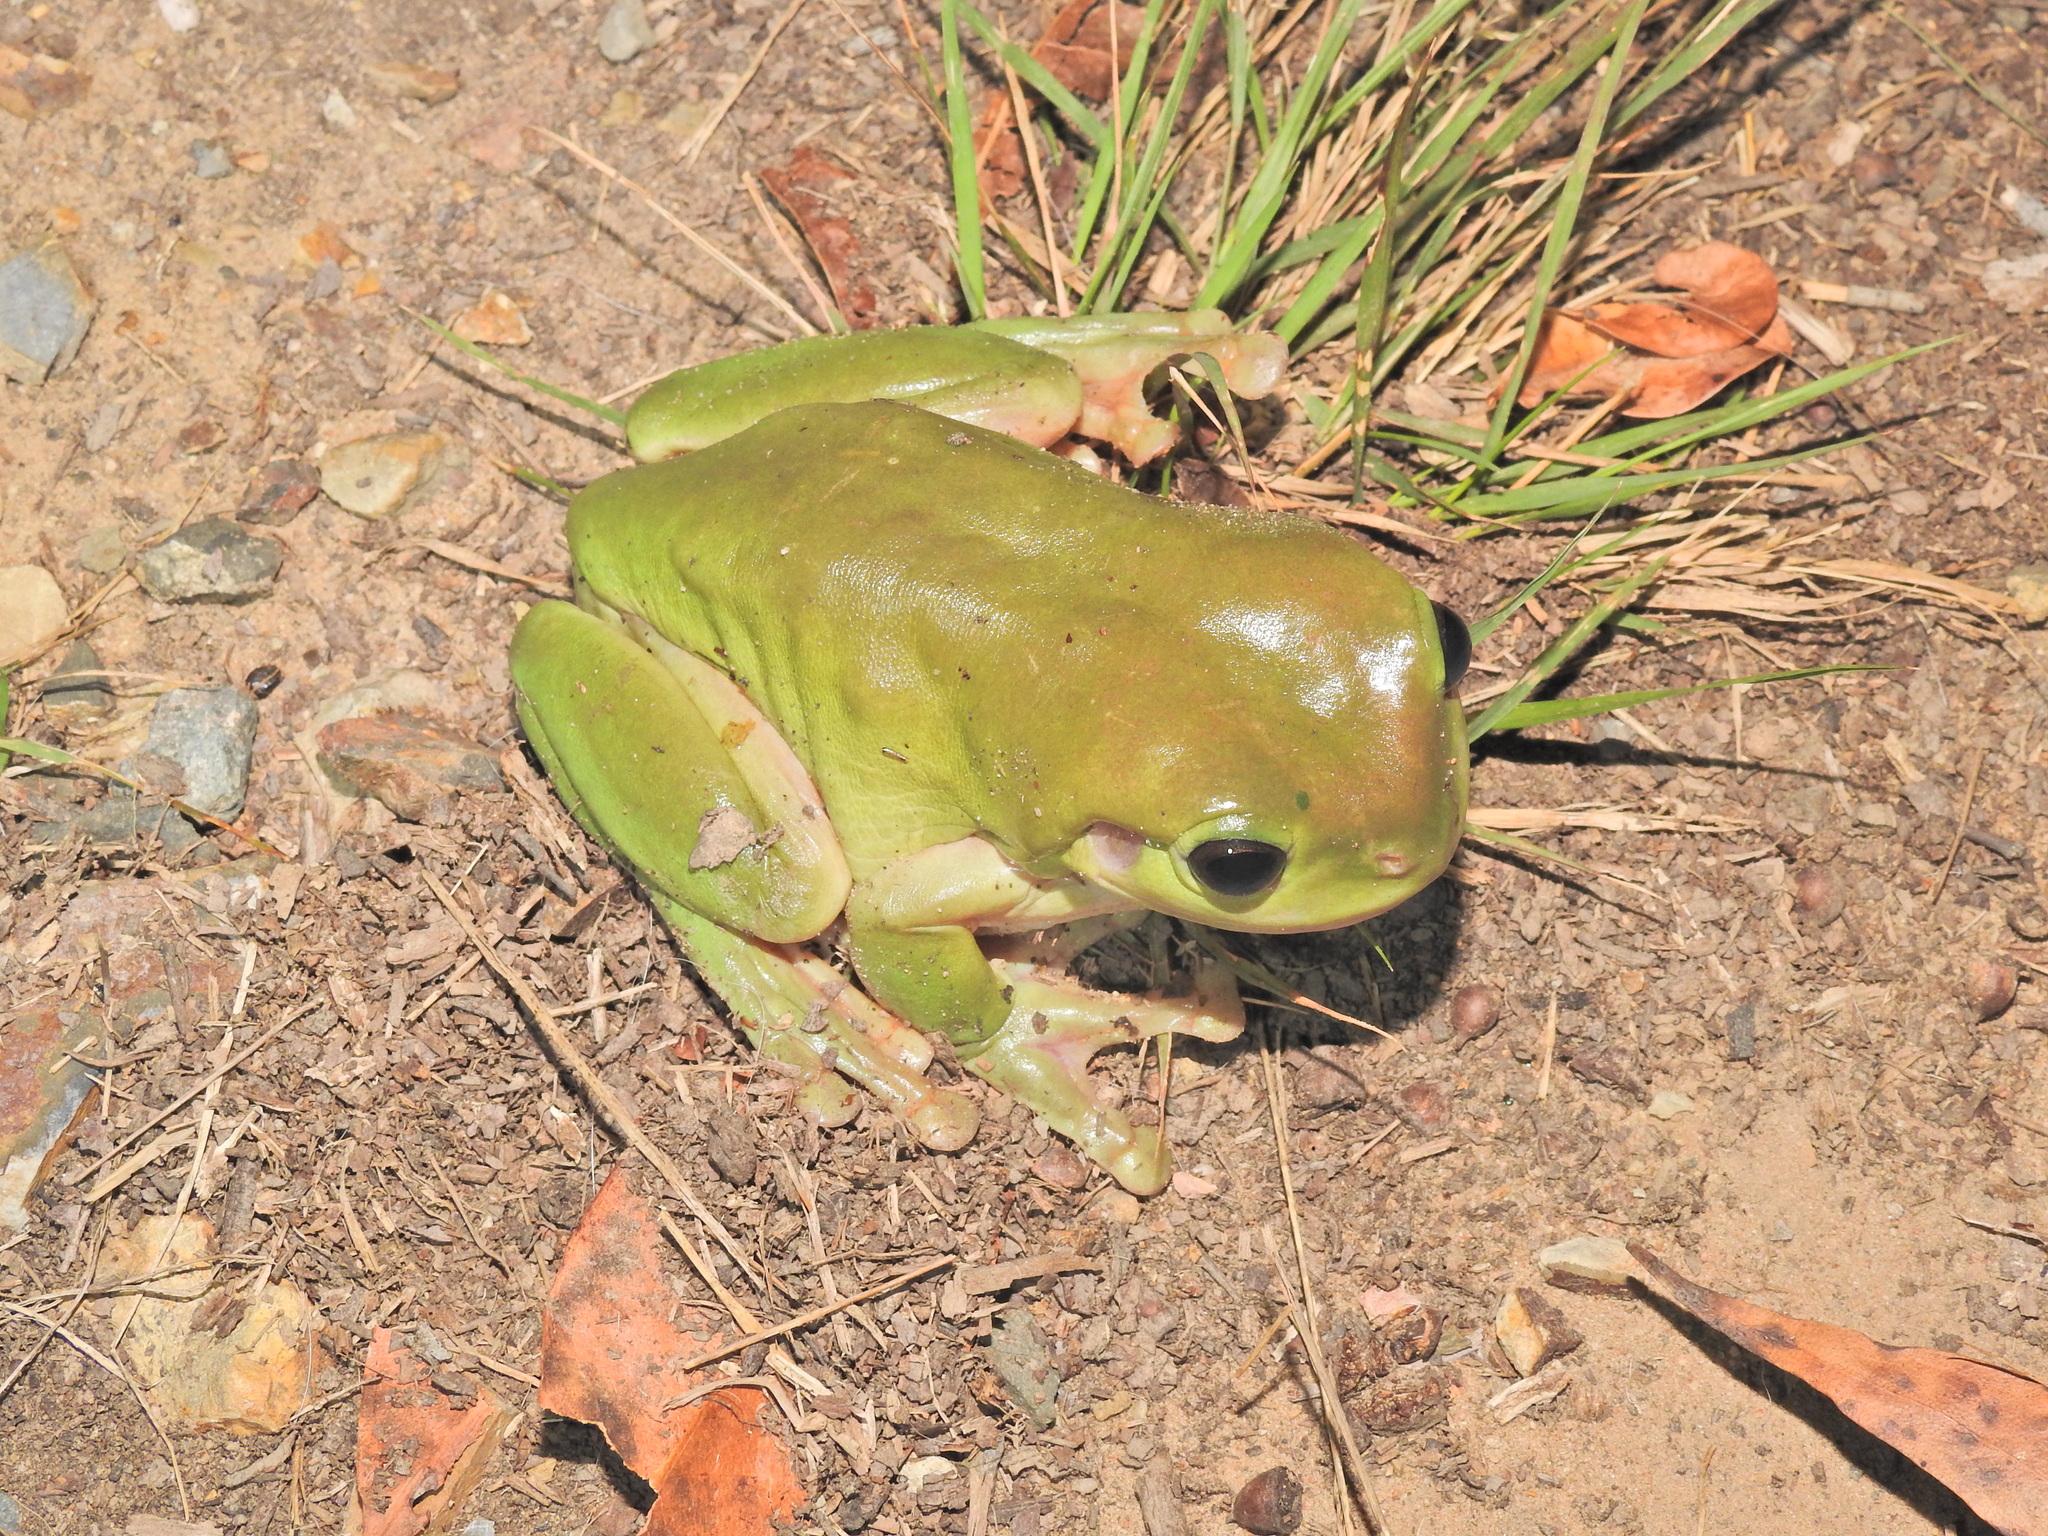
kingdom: Animalia
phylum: Chordata
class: Amphibia
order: Anura
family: Pelodryadidae
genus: Ranoidea
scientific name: Ranoidea caerulea
